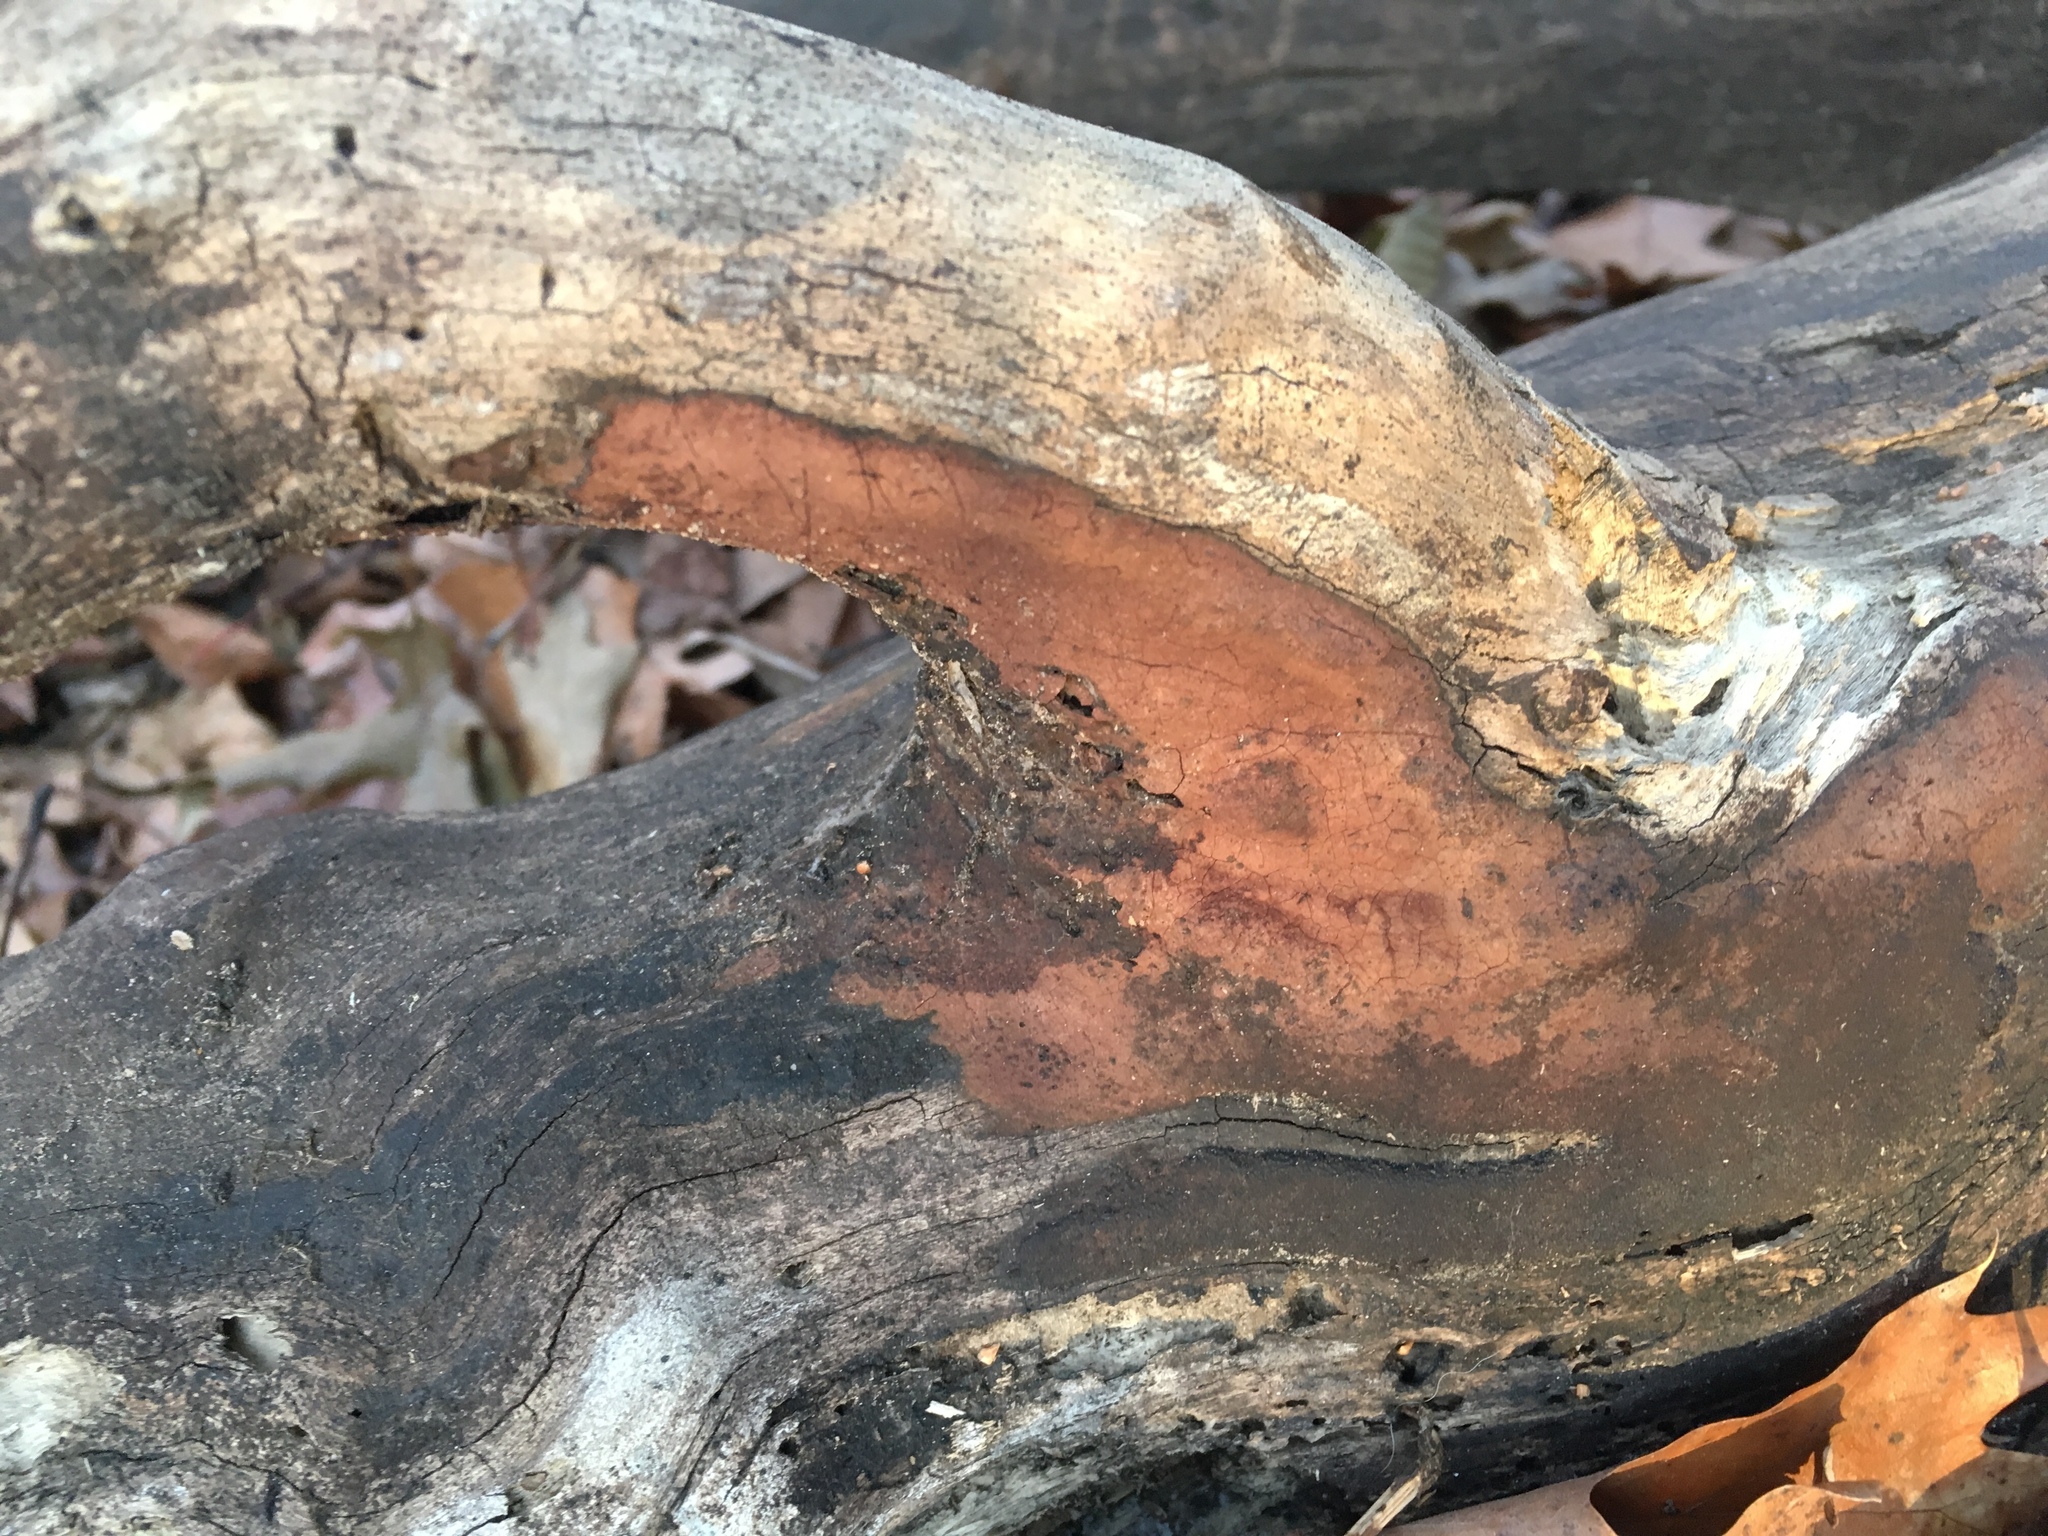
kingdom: Fungi
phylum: Ascomycota
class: Sordariomycetes
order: Xylariales
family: Hypoxylaceae
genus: Hypoxylon
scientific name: Hypoxylon rubiginosum
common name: Rusty woodwart
